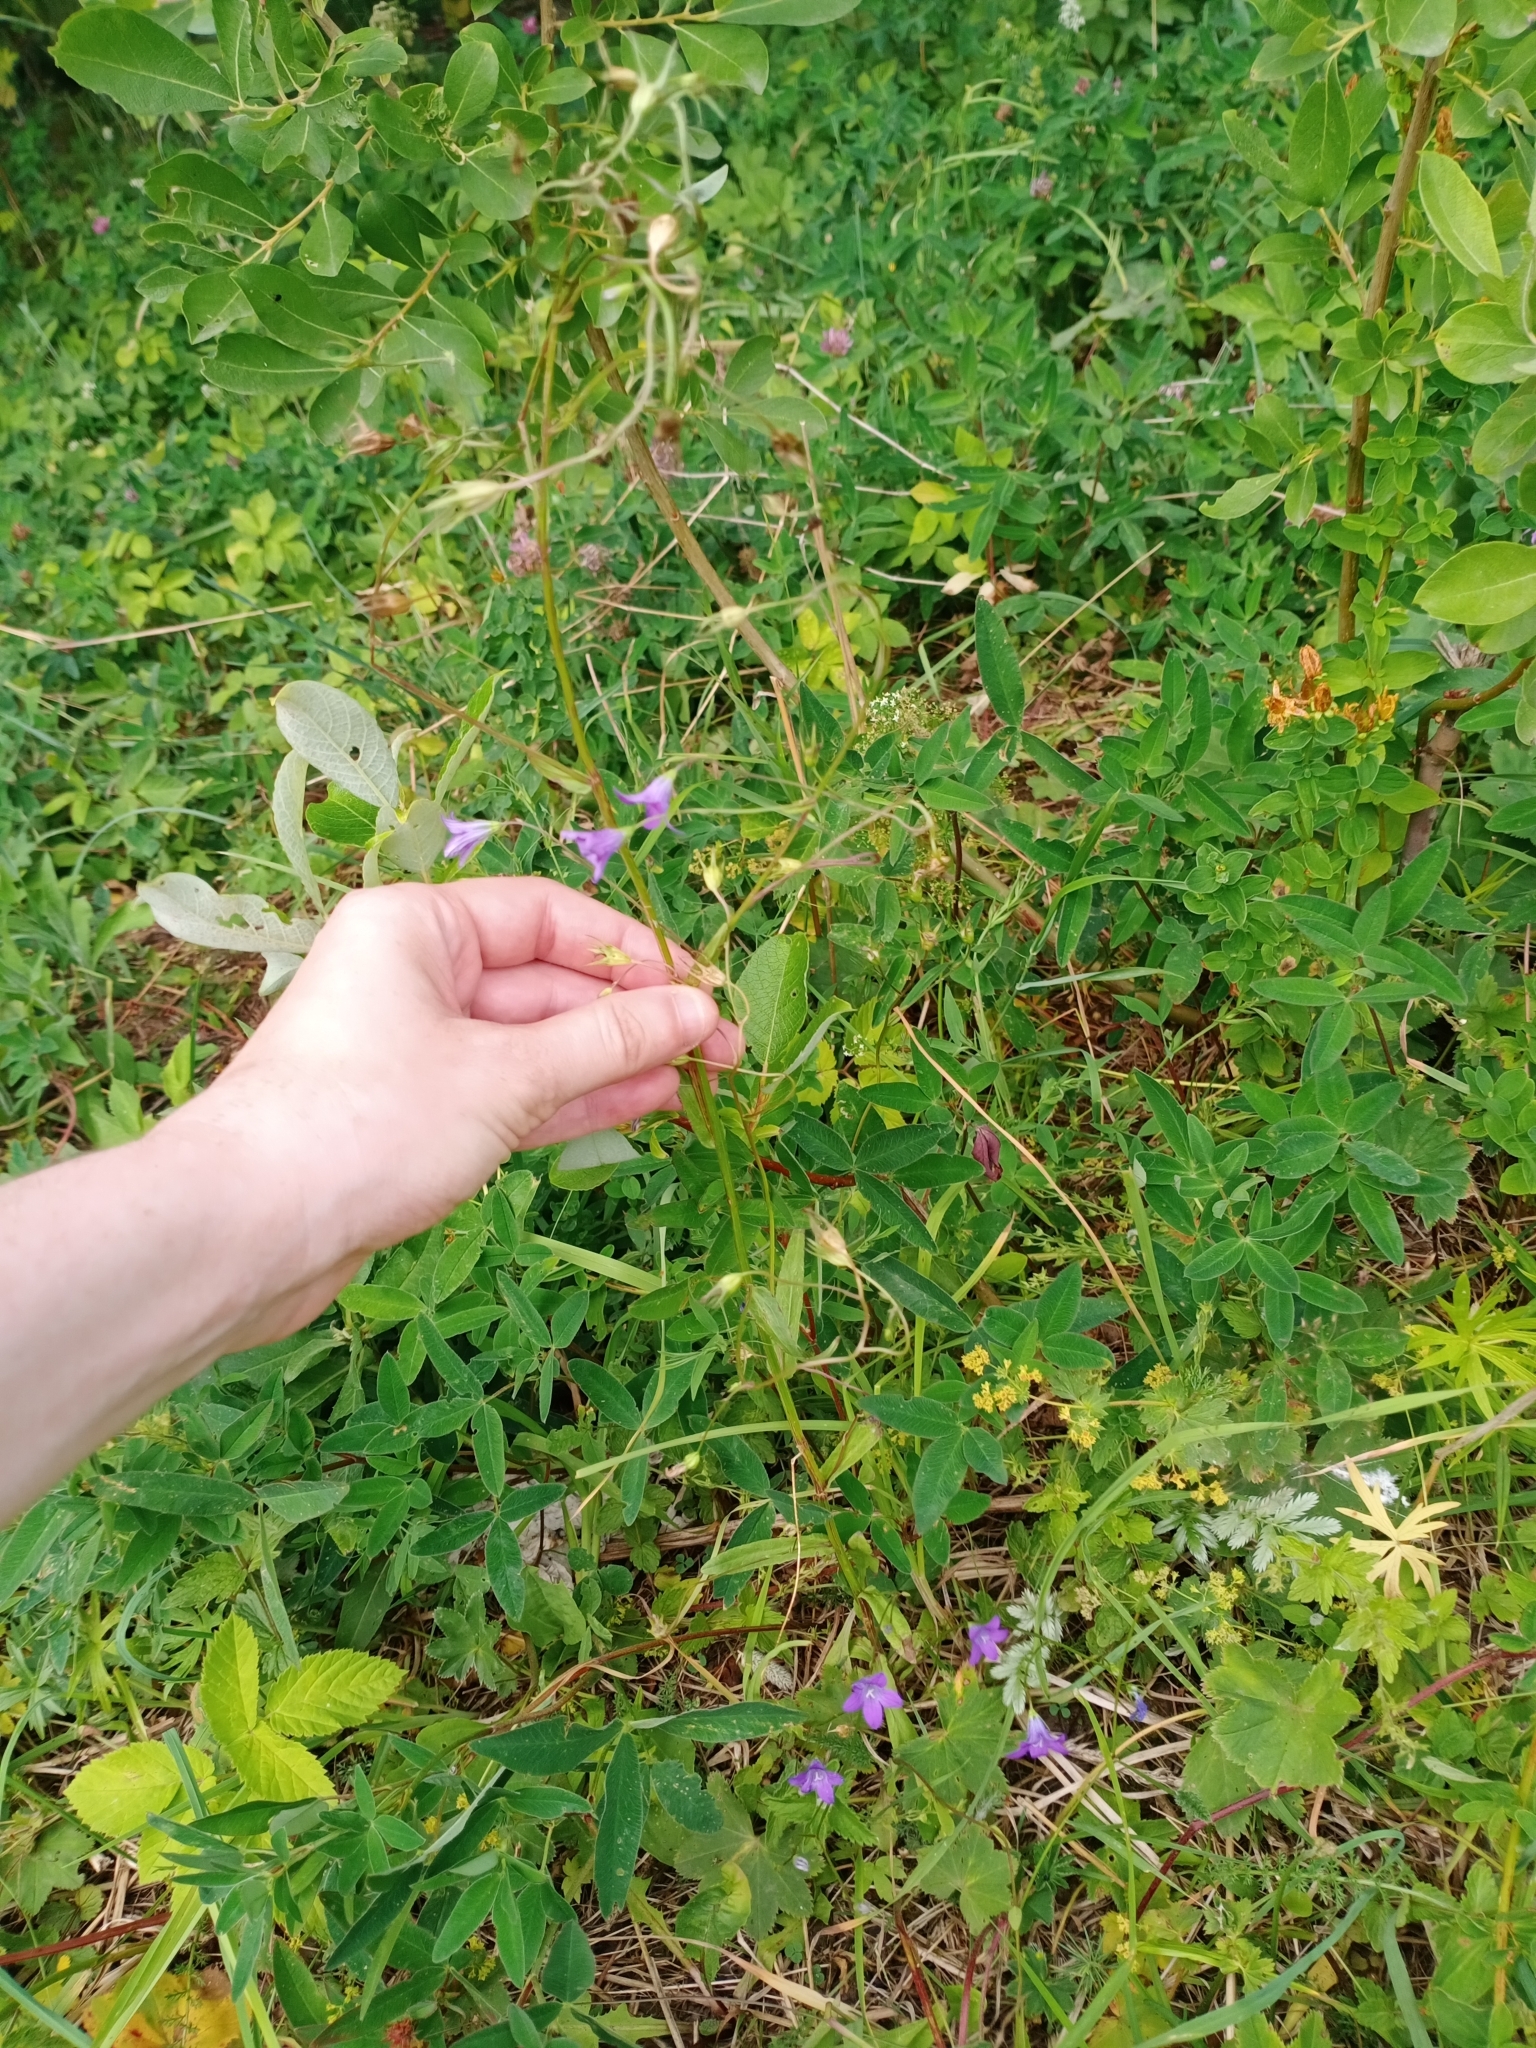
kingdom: Plantae
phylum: Tracheophyta
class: Magnoliopsida
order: Asterales
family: Campanulaceae
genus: Campanula
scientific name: Campanula patula
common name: Spreading bellflower
